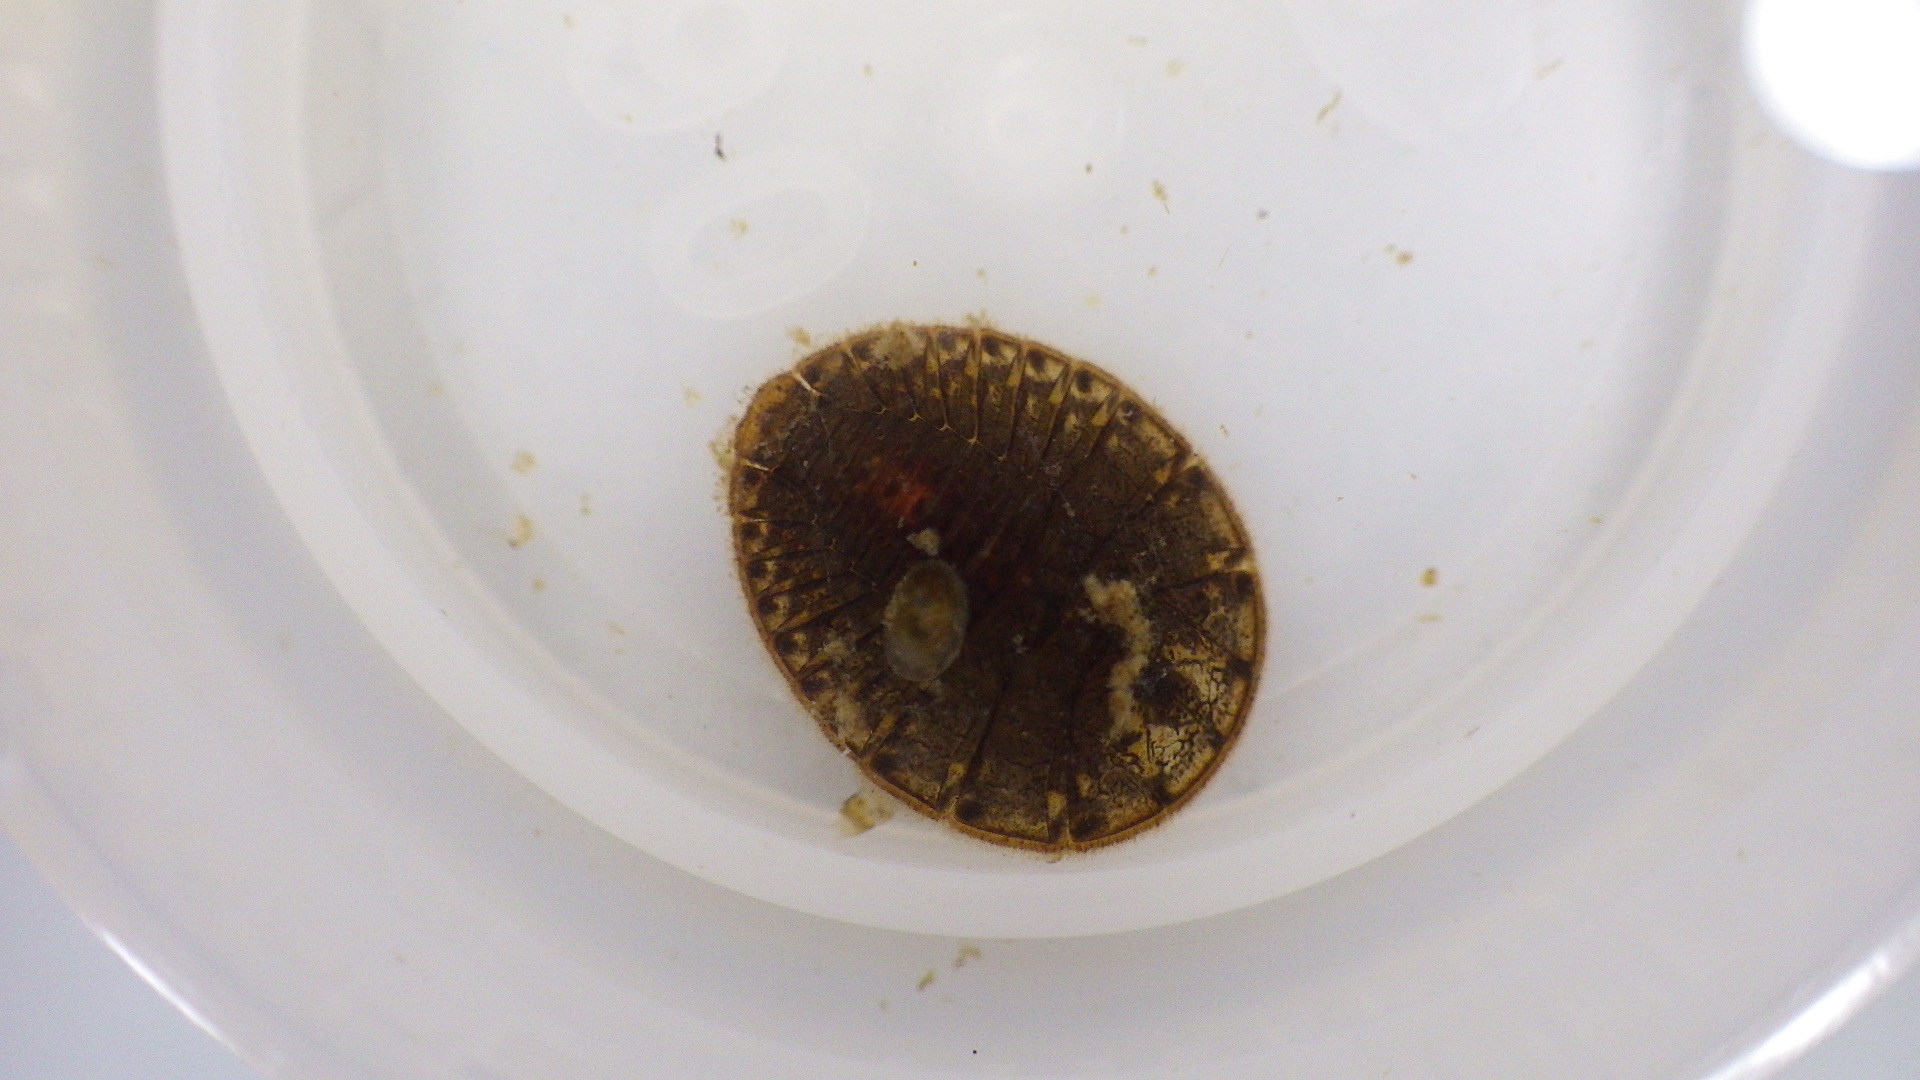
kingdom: Animalia
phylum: Arthropoda
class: Insecta
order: Coleoptera
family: Psephenidae
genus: Psephenus
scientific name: Psephenus herricki
